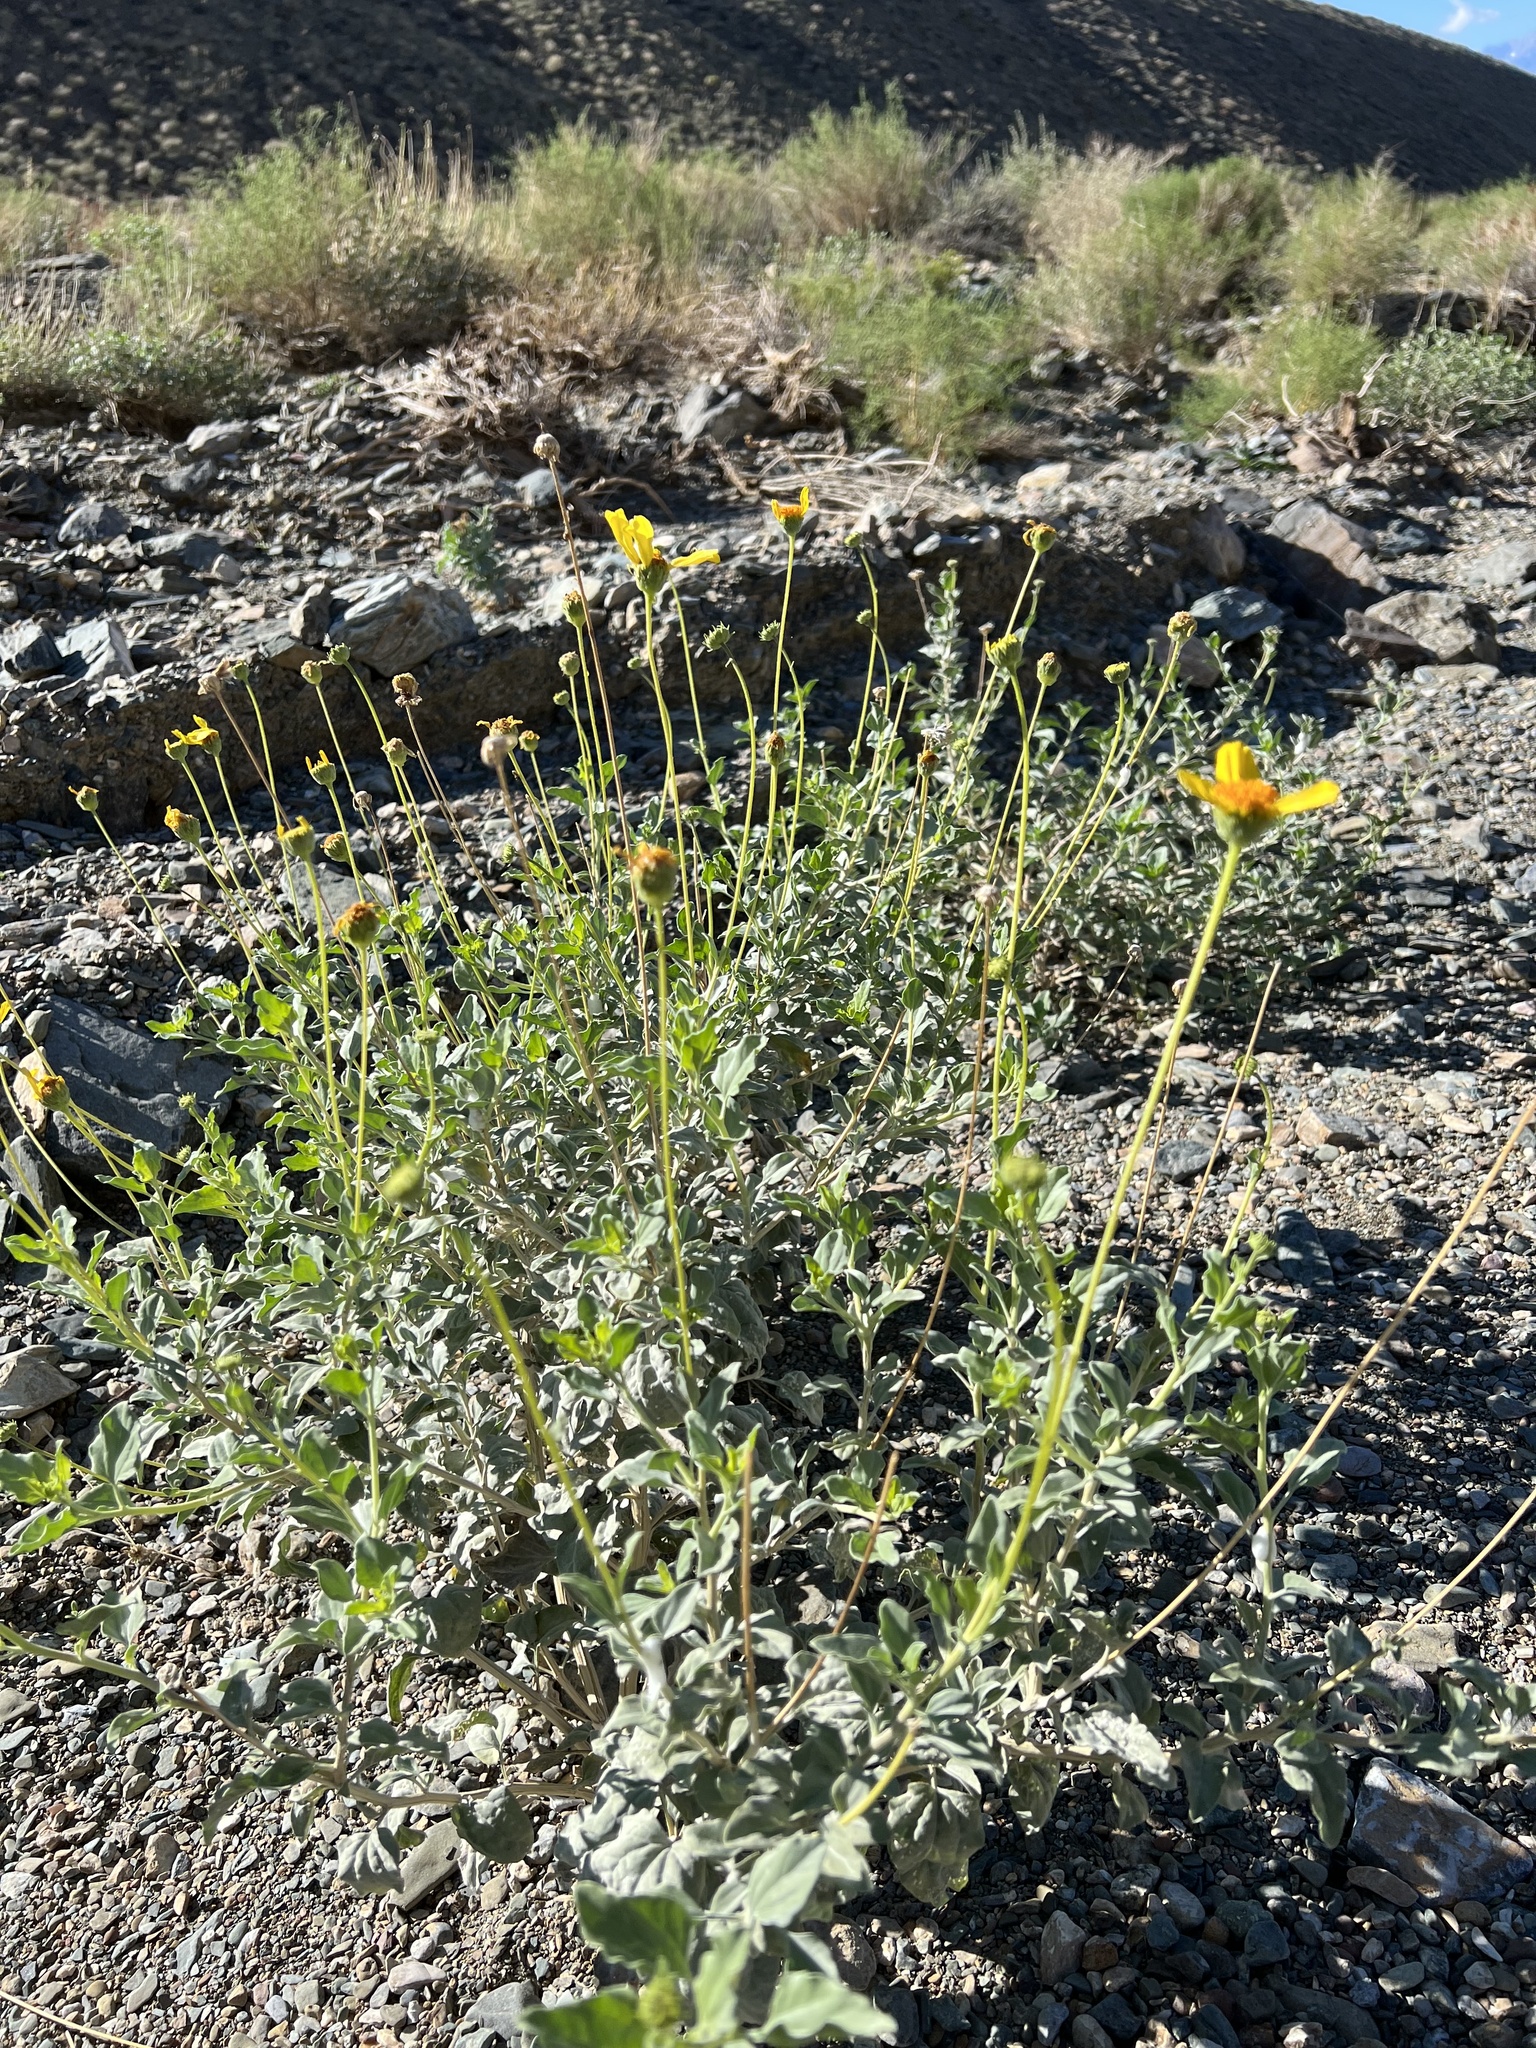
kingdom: Plantae
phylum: Tracheophyta
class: Magnoliopsida
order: Asterales
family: Asteraceae
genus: Encelia
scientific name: Encelia actoni
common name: Acton encelia
